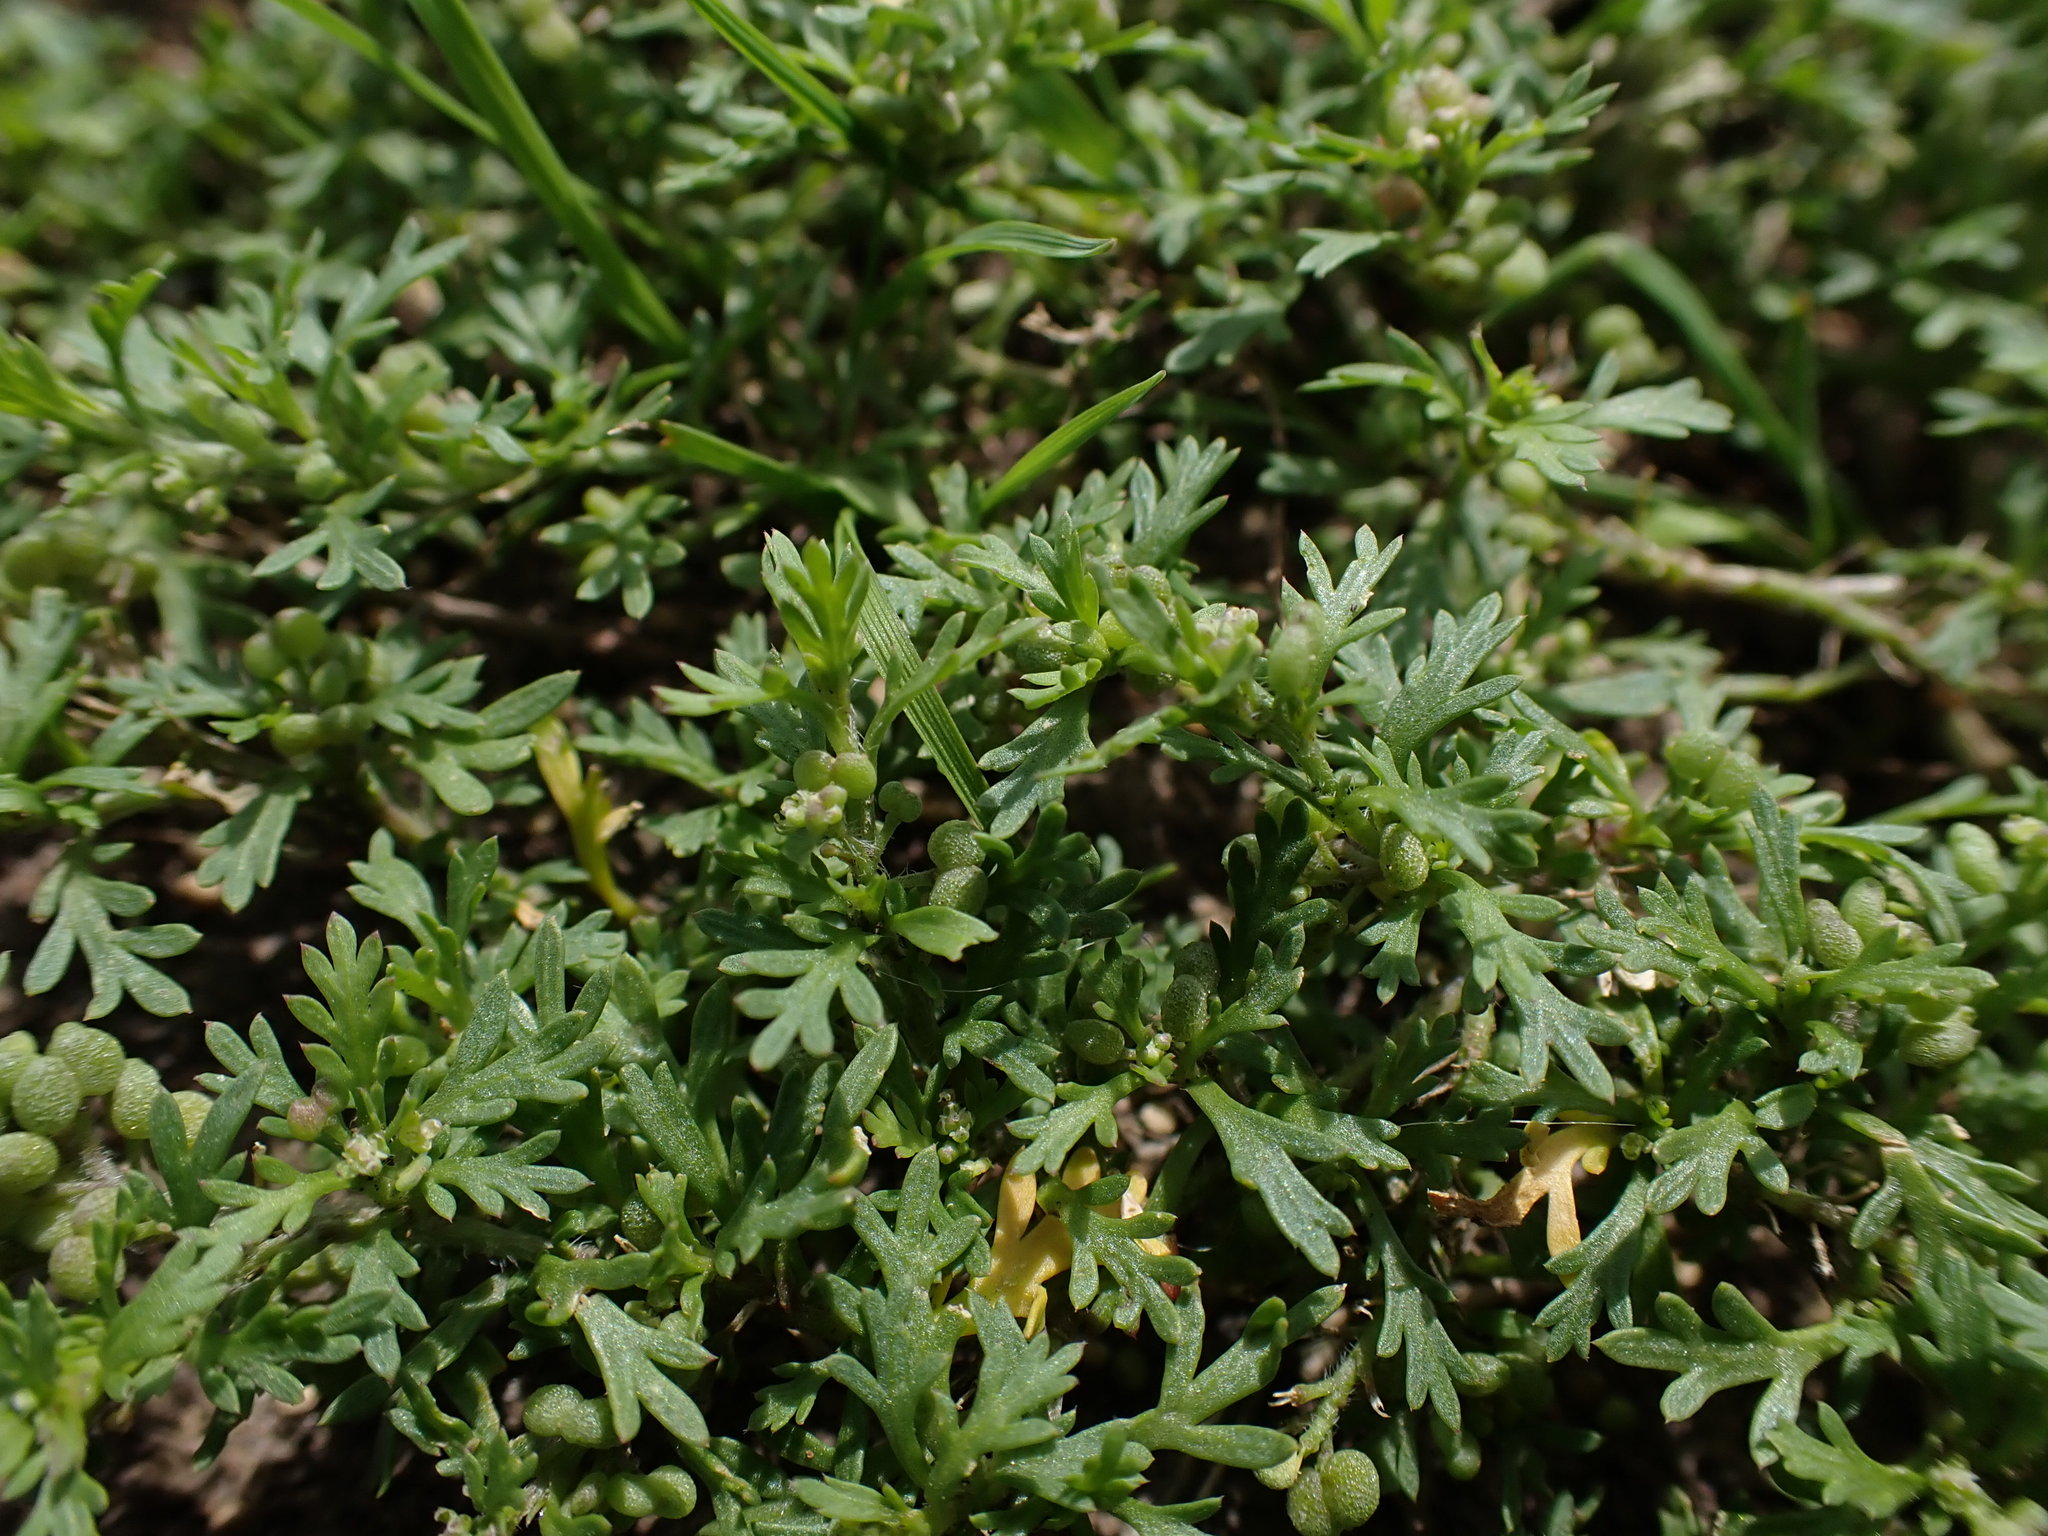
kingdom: Plantae
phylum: Tracheophyta
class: Magnoliopsida
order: Brassicales
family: Brassicaceae
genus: Lepidium
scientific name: Lepidium didymum
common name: Lesser swinecress
